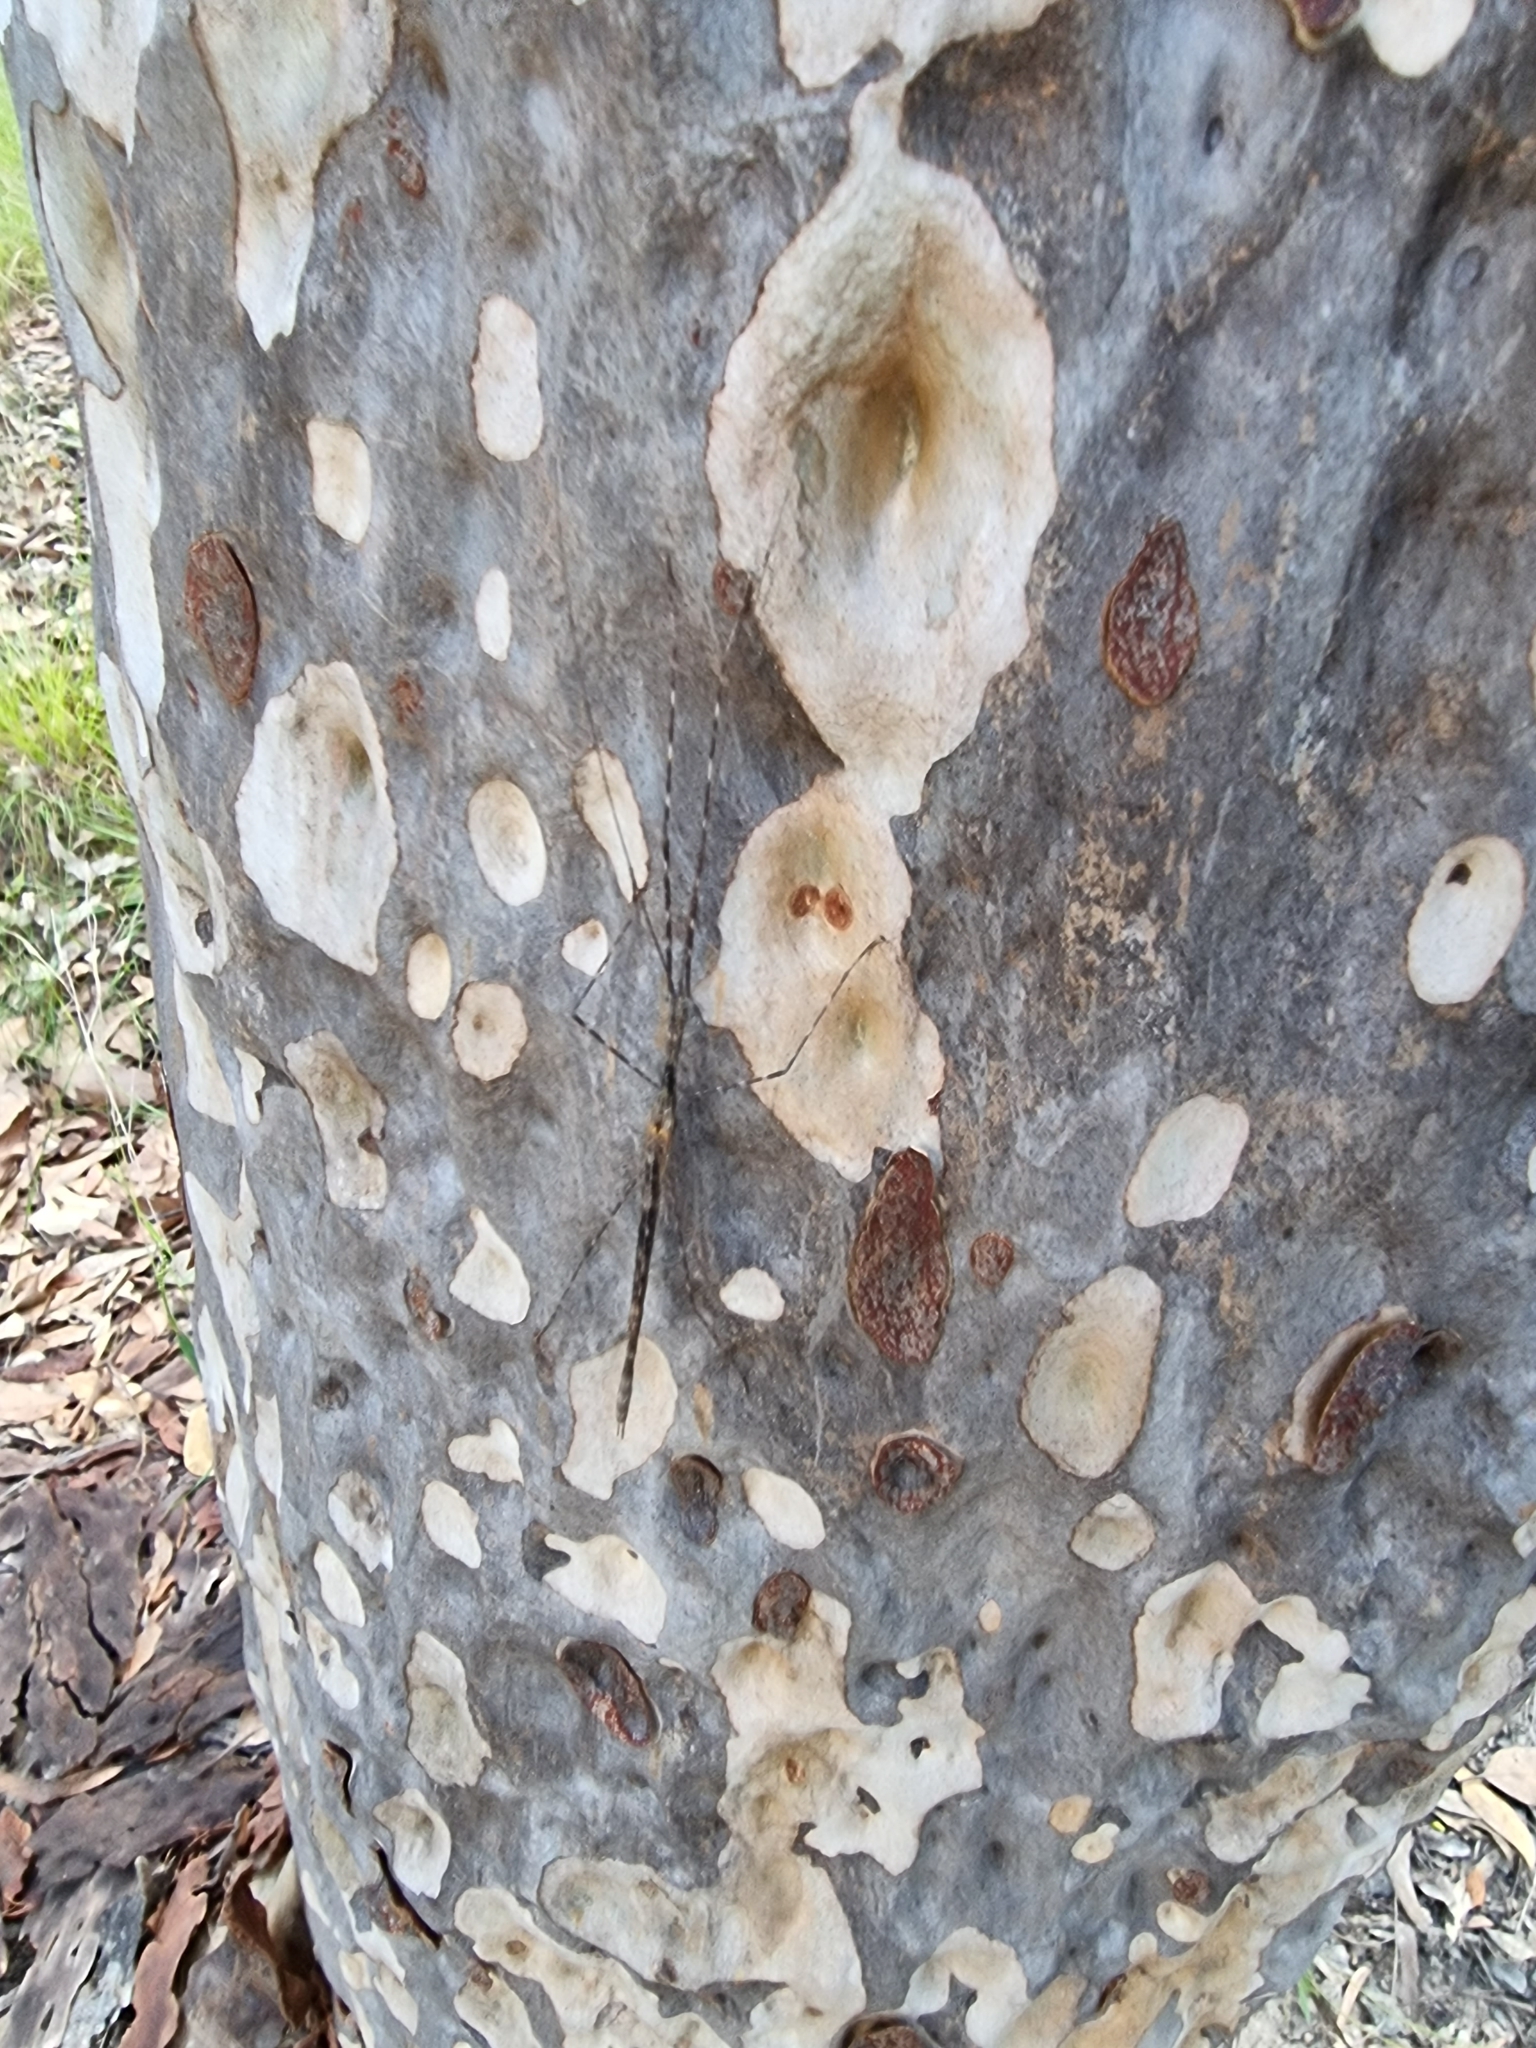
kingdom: Animalia
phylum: Arthropoda
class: Insecta
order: Phasmida
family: Lonchodidae
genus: Mesaner
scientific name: Mesaner sarpedon
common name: Dark-winged stick-insect
